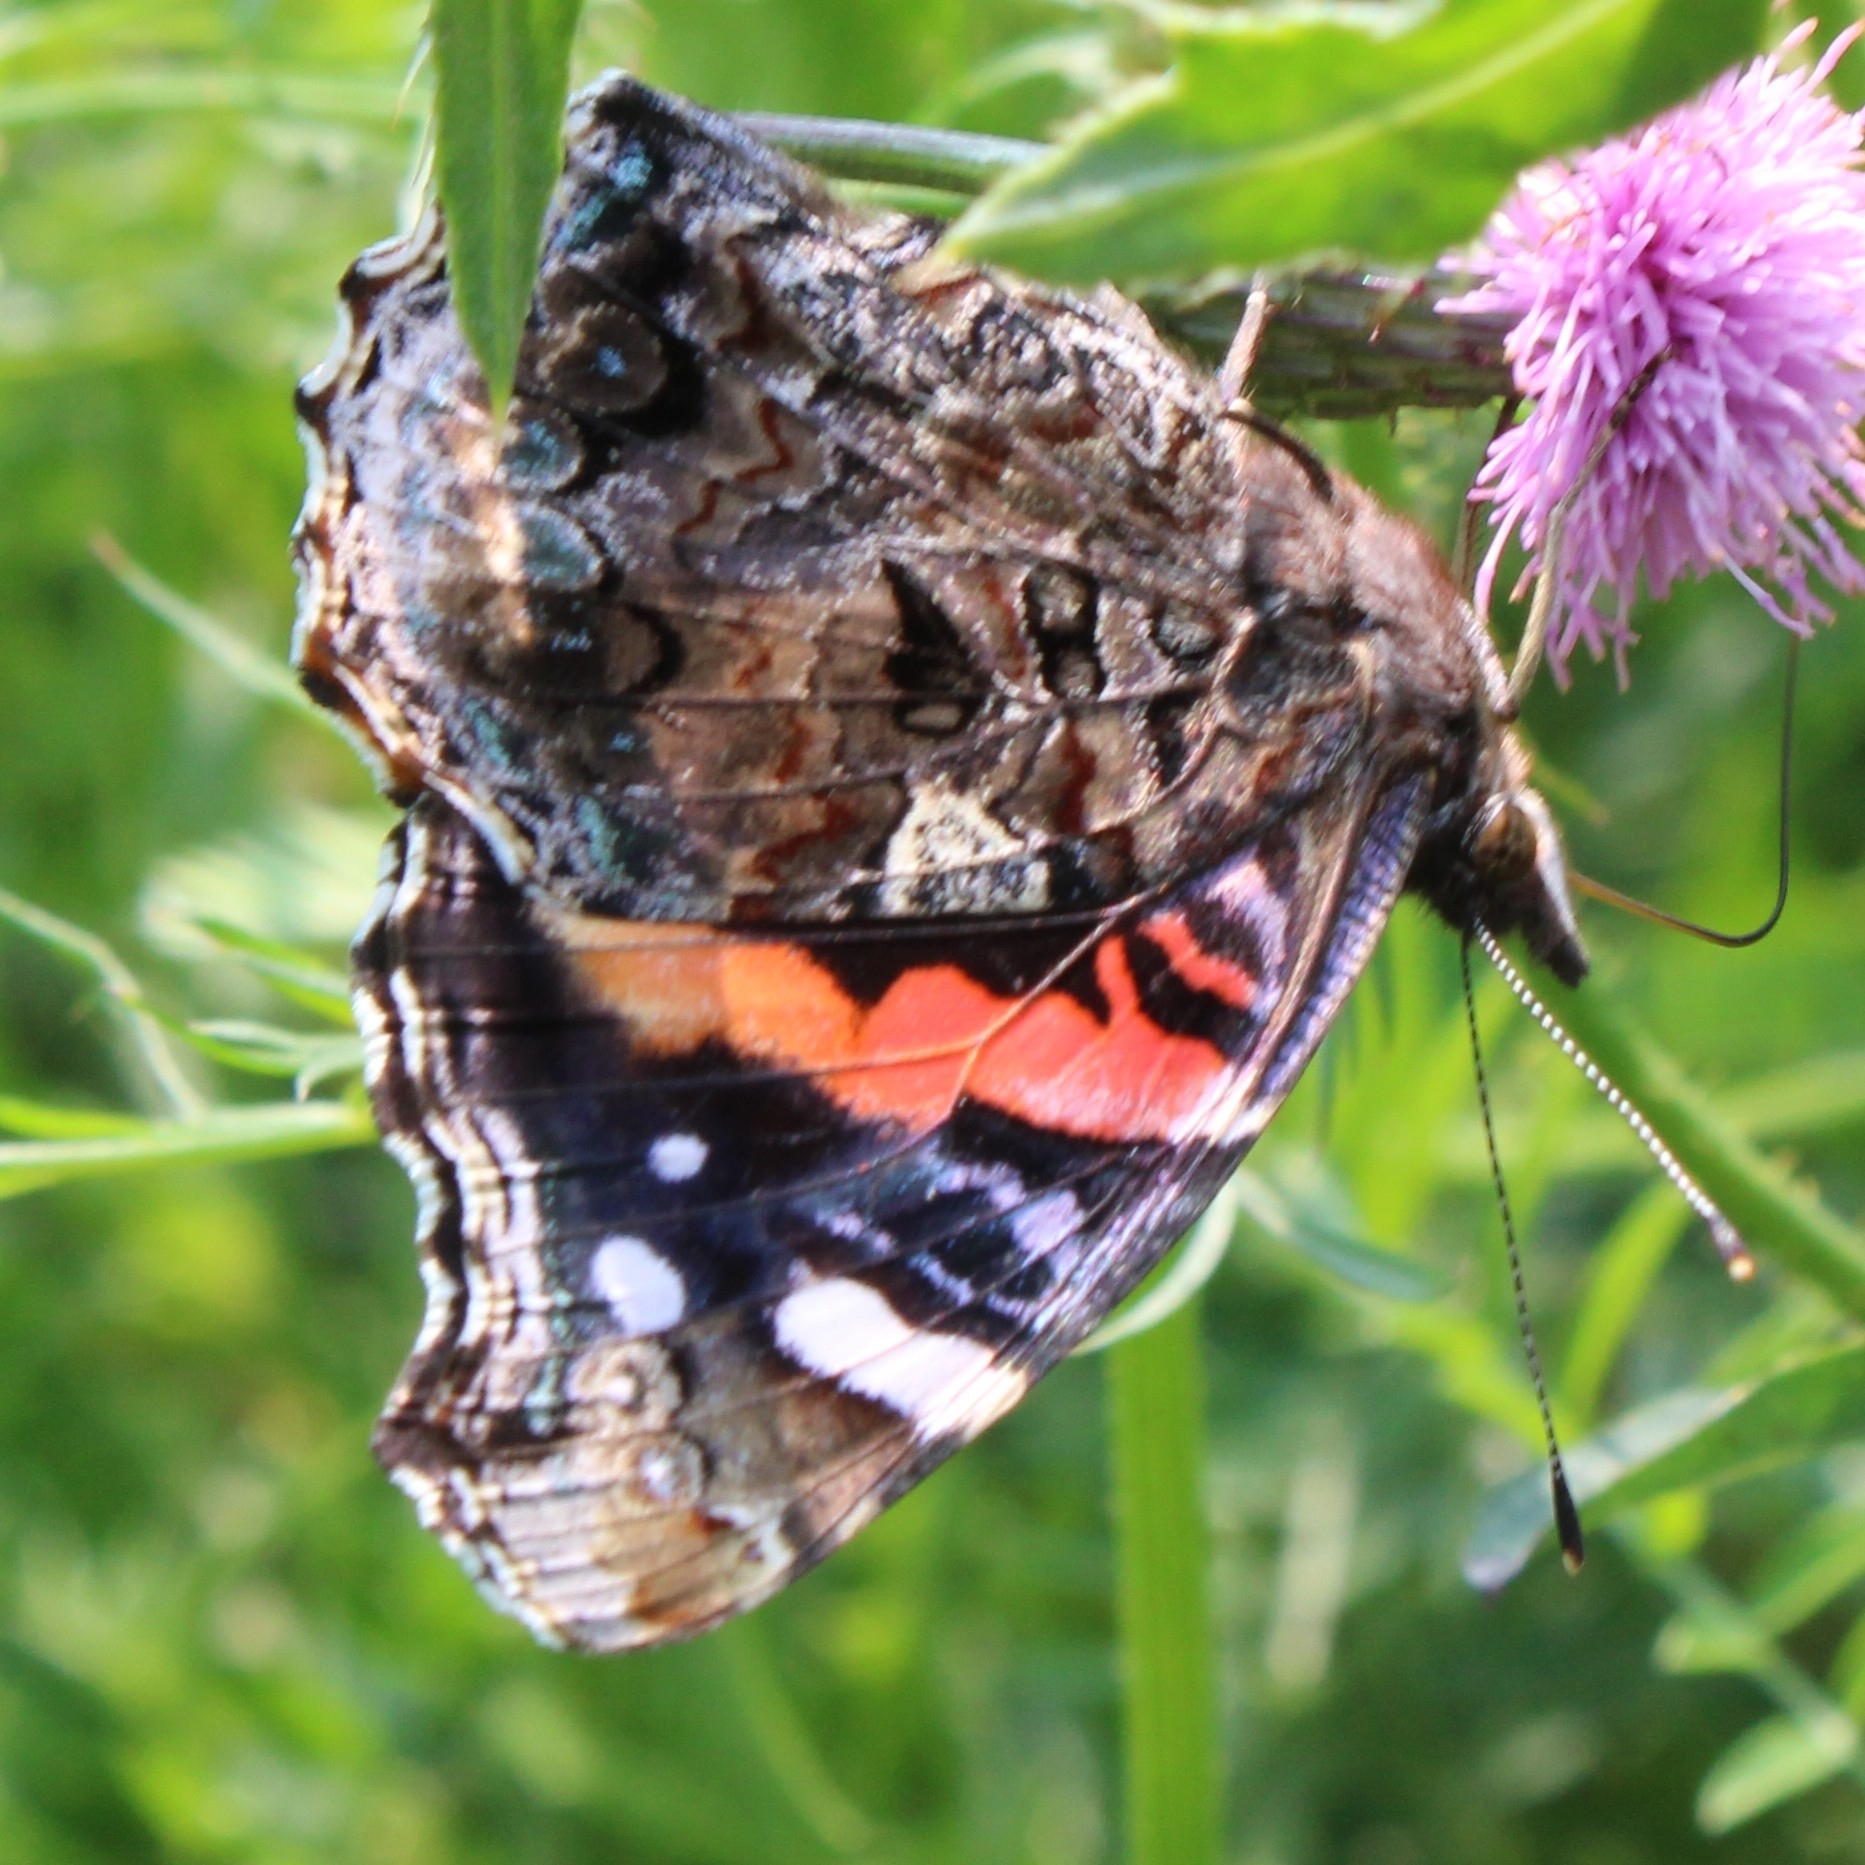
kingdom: Animalia
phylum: Arthropoda
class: Insecta
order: Lepidoptera
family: Nymphalidae
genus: Vanessa
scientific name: Vanessa atalanta
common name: Red admiral
